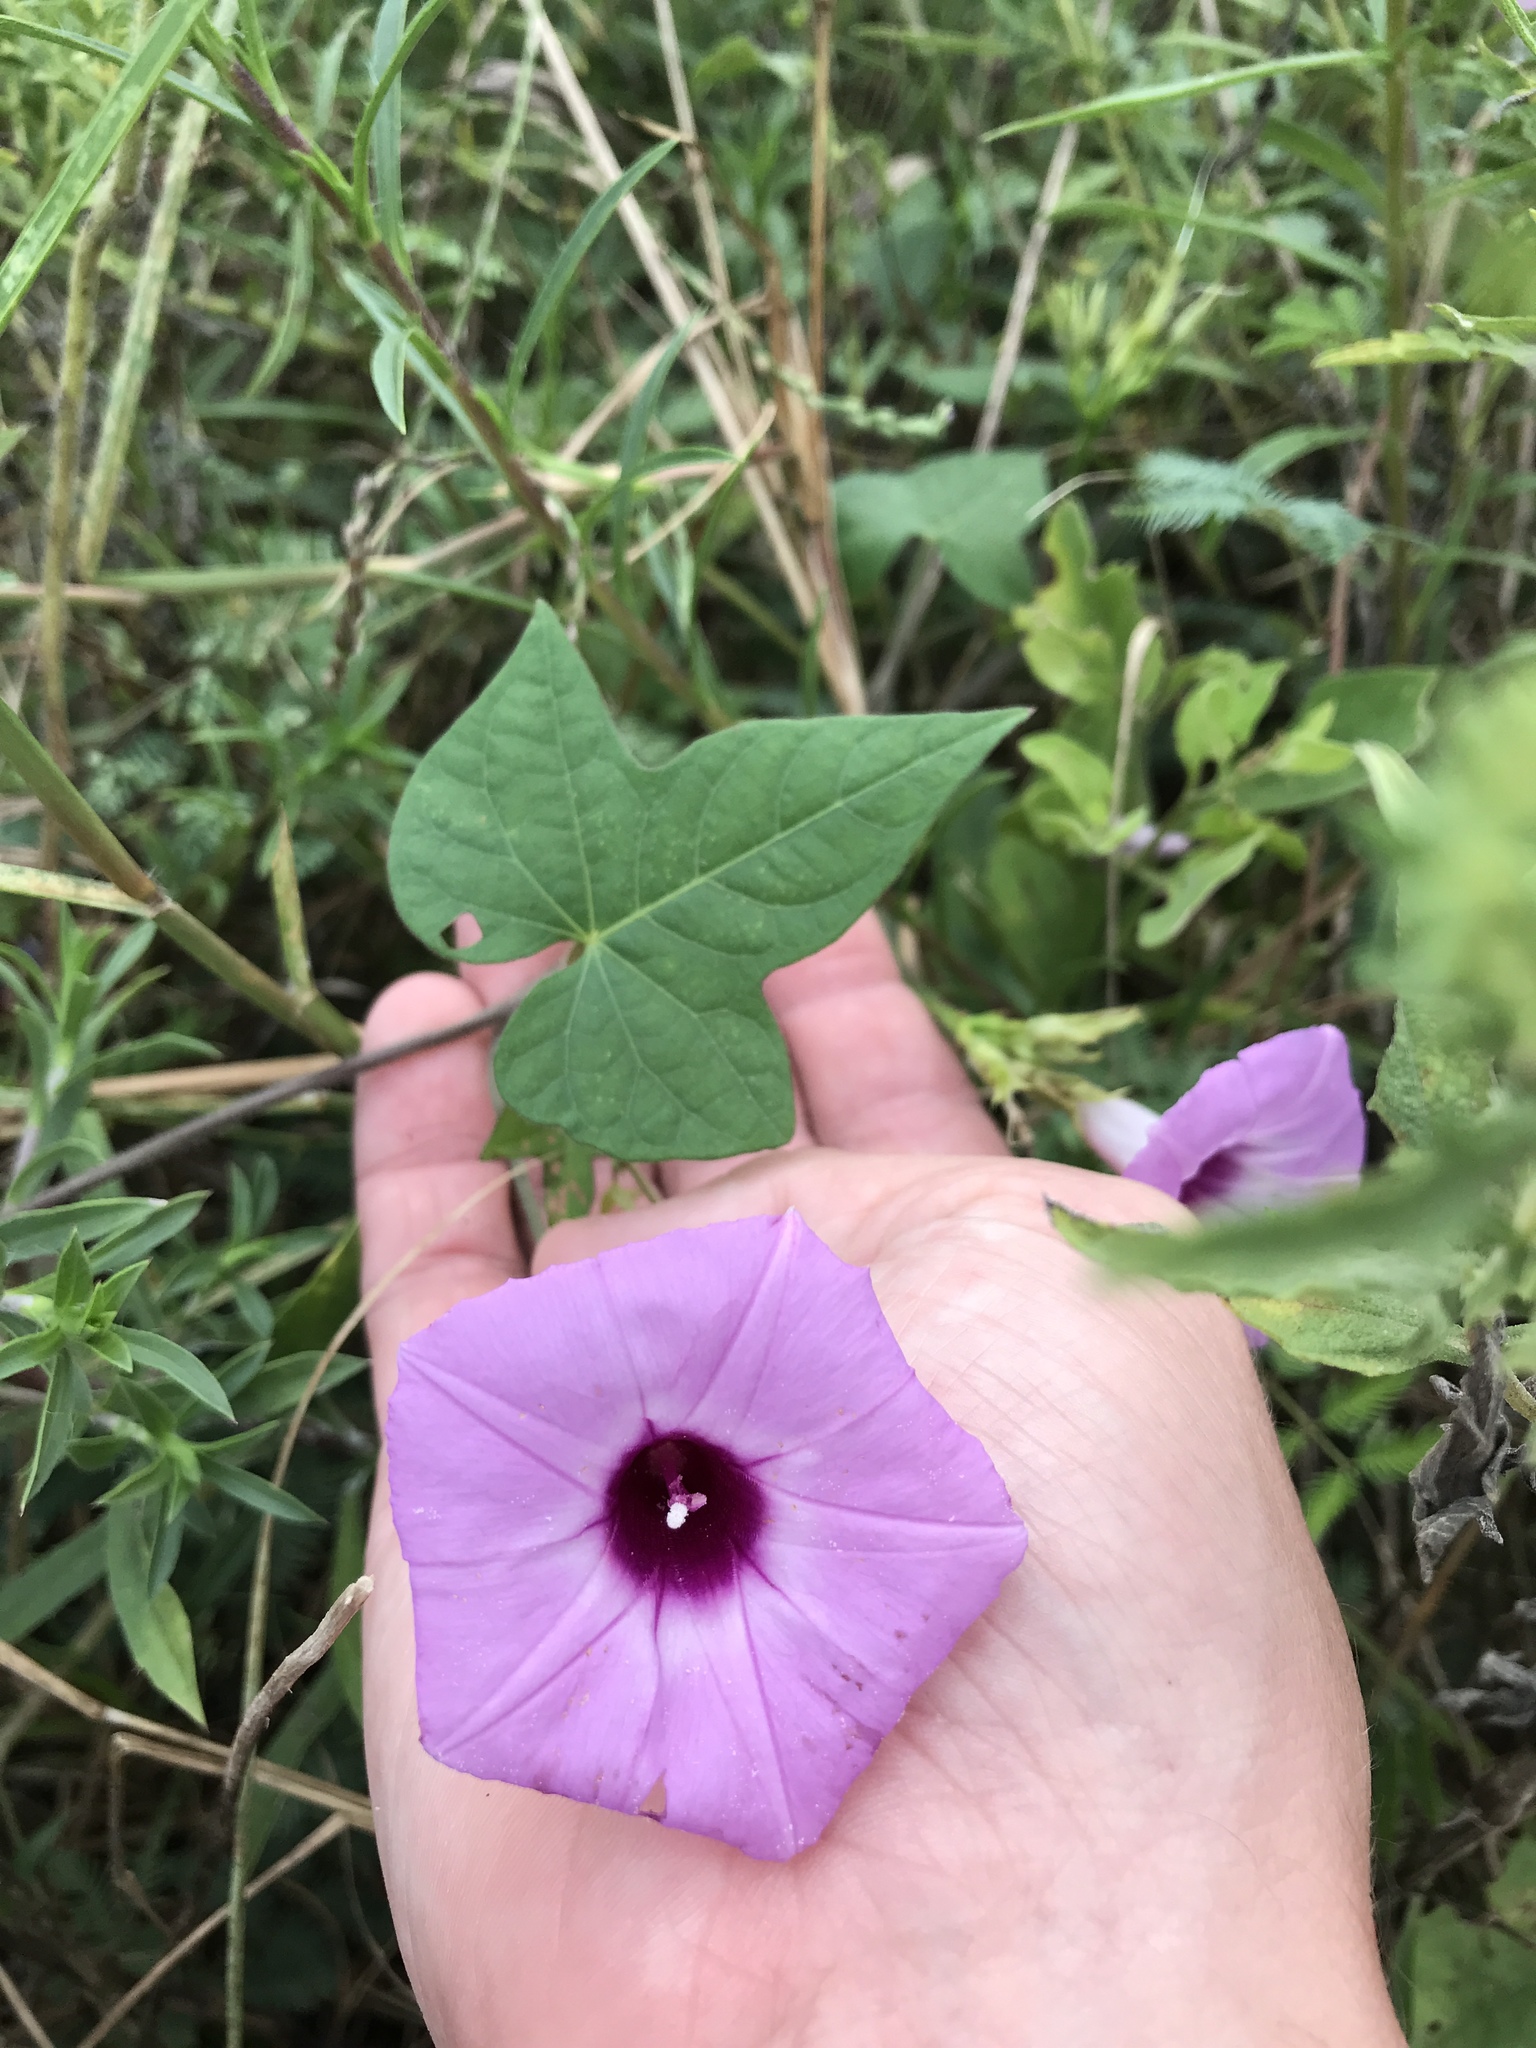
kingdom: Plantae
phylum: Tracheophyta
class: Magnoliopsida
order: Solanales
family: Convolvulaceae
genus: Ipomoea
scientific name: Ipomoea cordatotriloba
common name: Cotton morning glory
